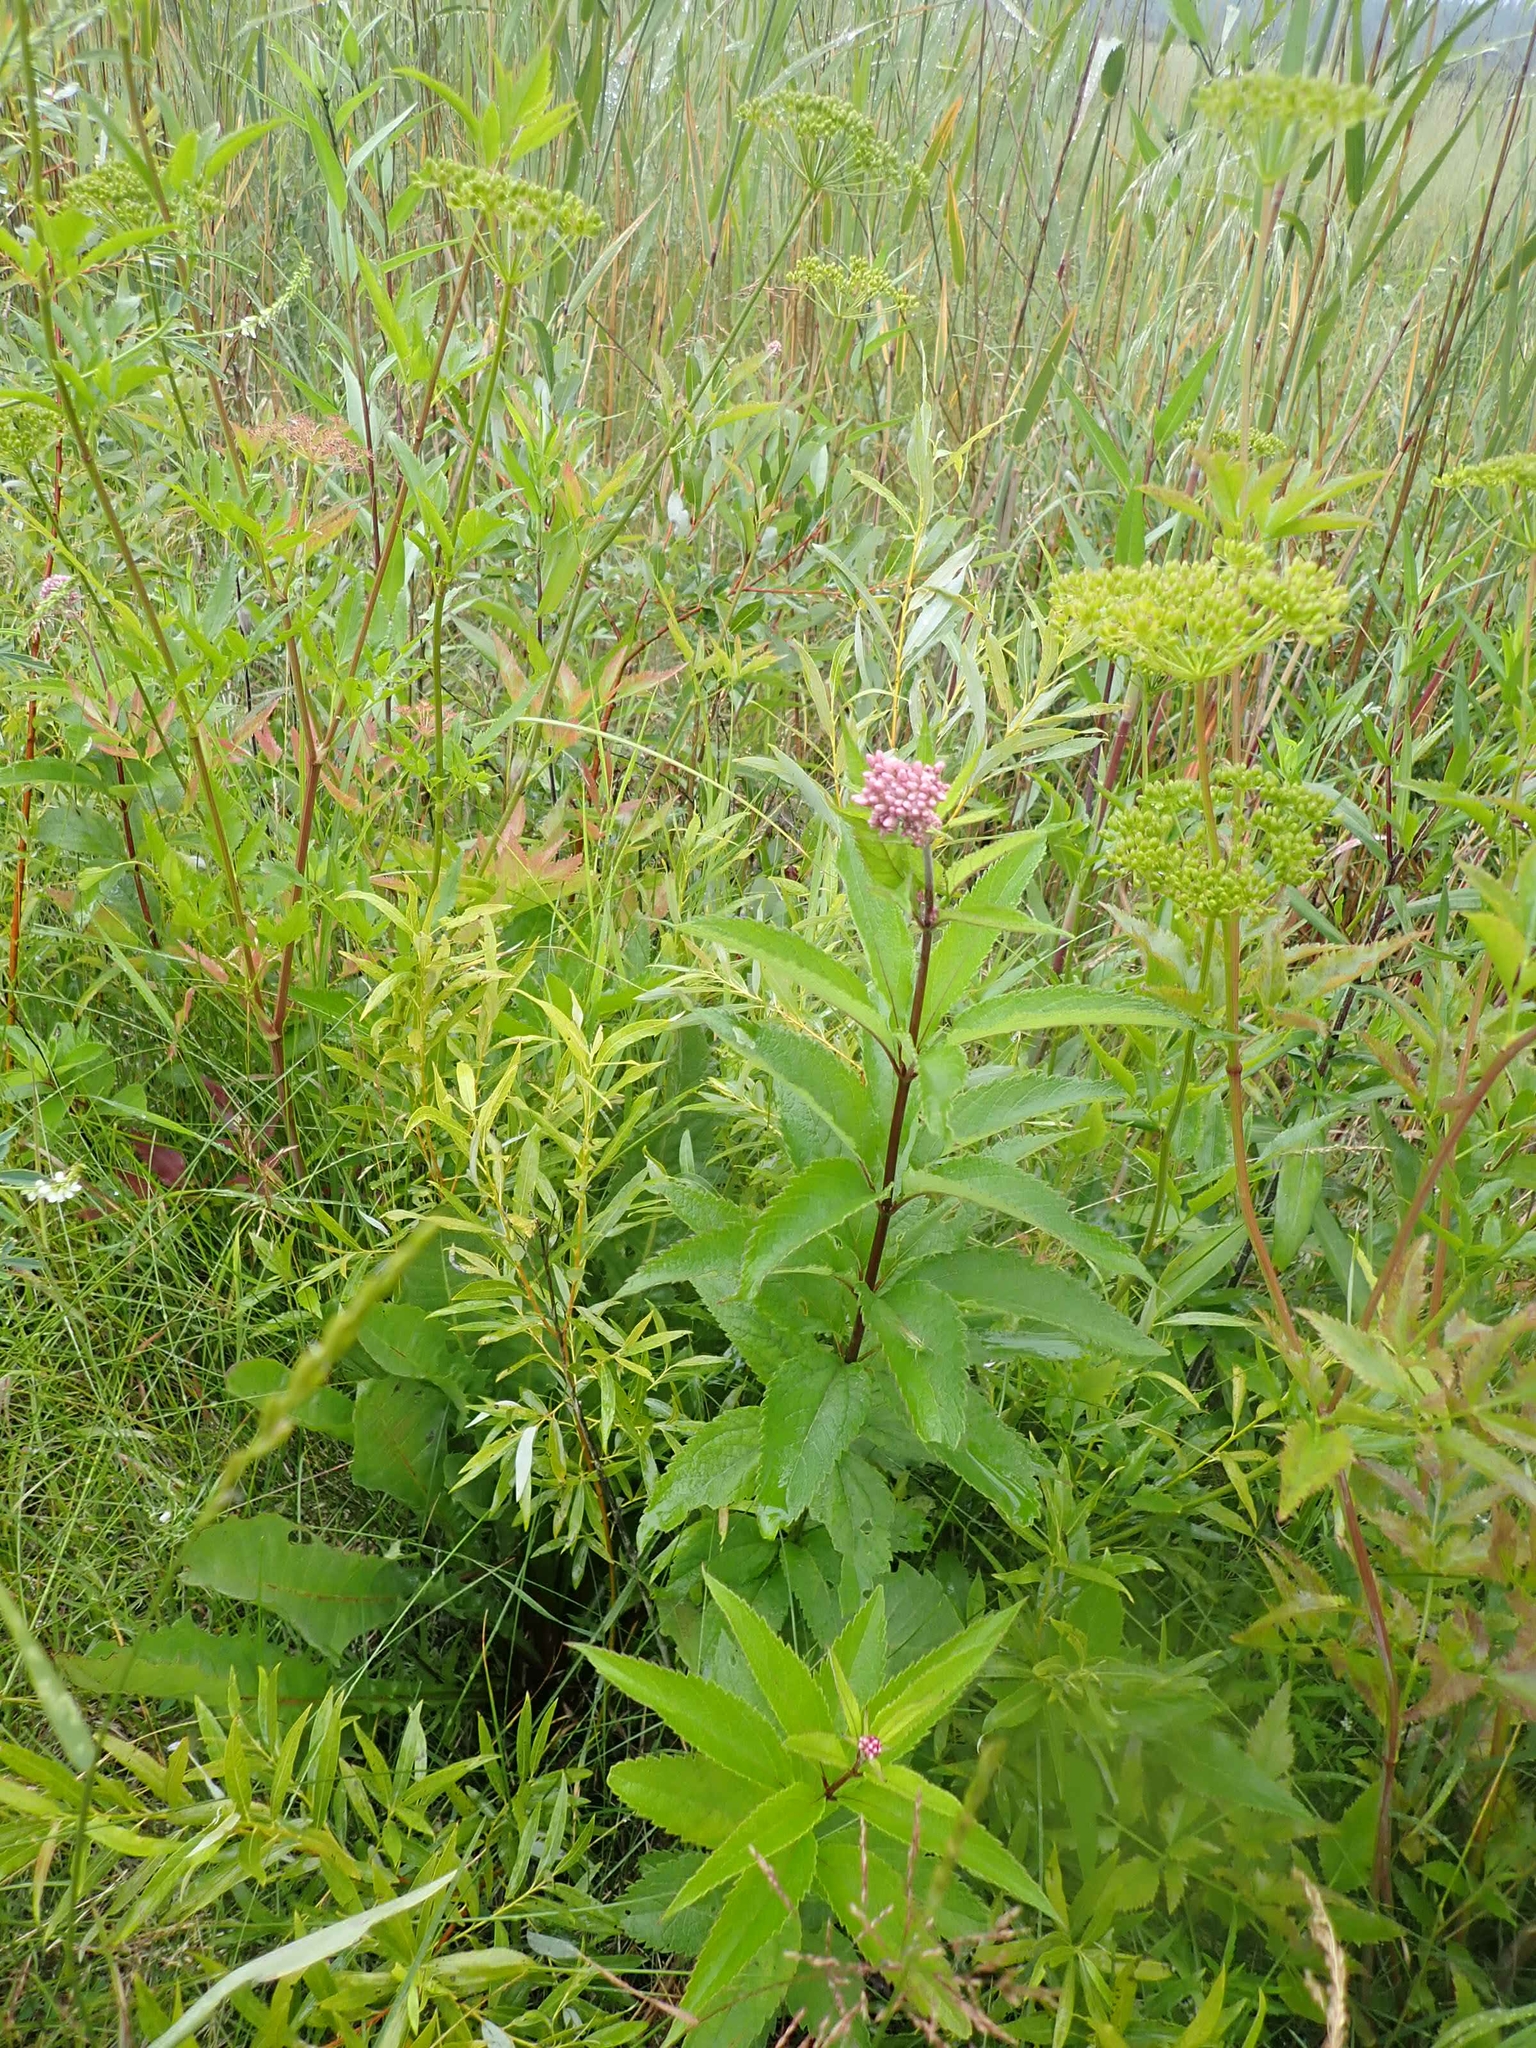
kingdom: Plantae
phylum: Tracheophyta
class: Magnoliopsida
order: Asterales
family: Asteraceae
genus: Eutrochium
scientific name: Eutrochium maculatum
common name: Spotted joe pye weed
